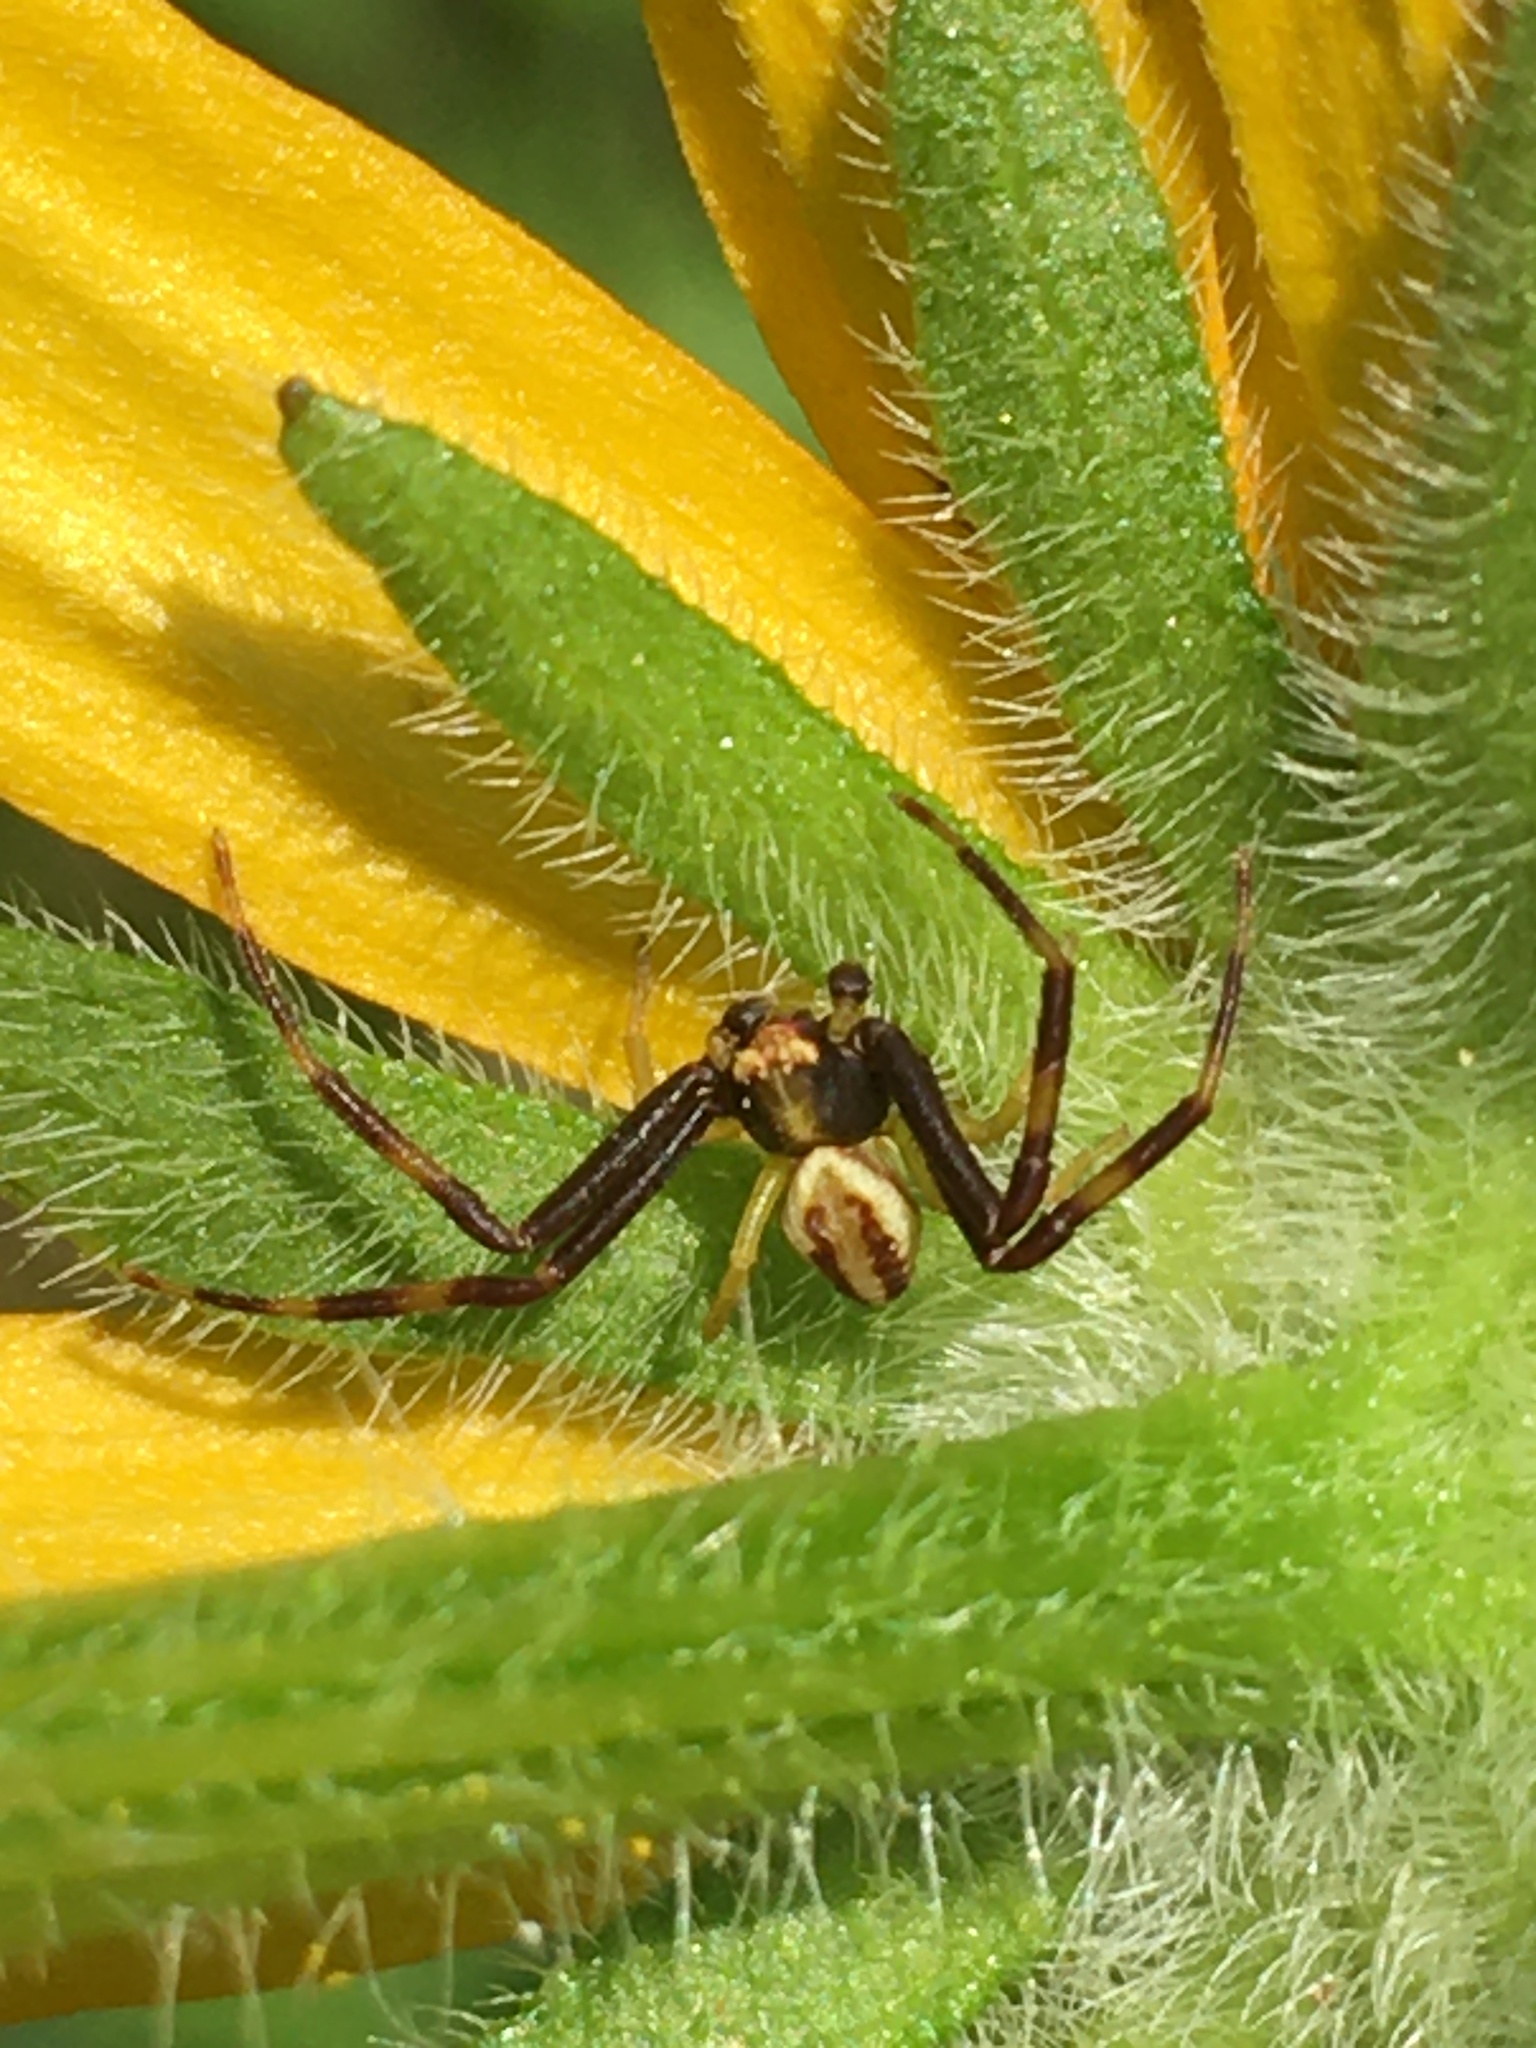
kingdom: Animalia
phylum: Arthropoda
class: Arachnida
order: Araneae
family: Thomisidae
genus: Misumena
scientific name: Misumena vatia
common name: Goldenrod crab spider
